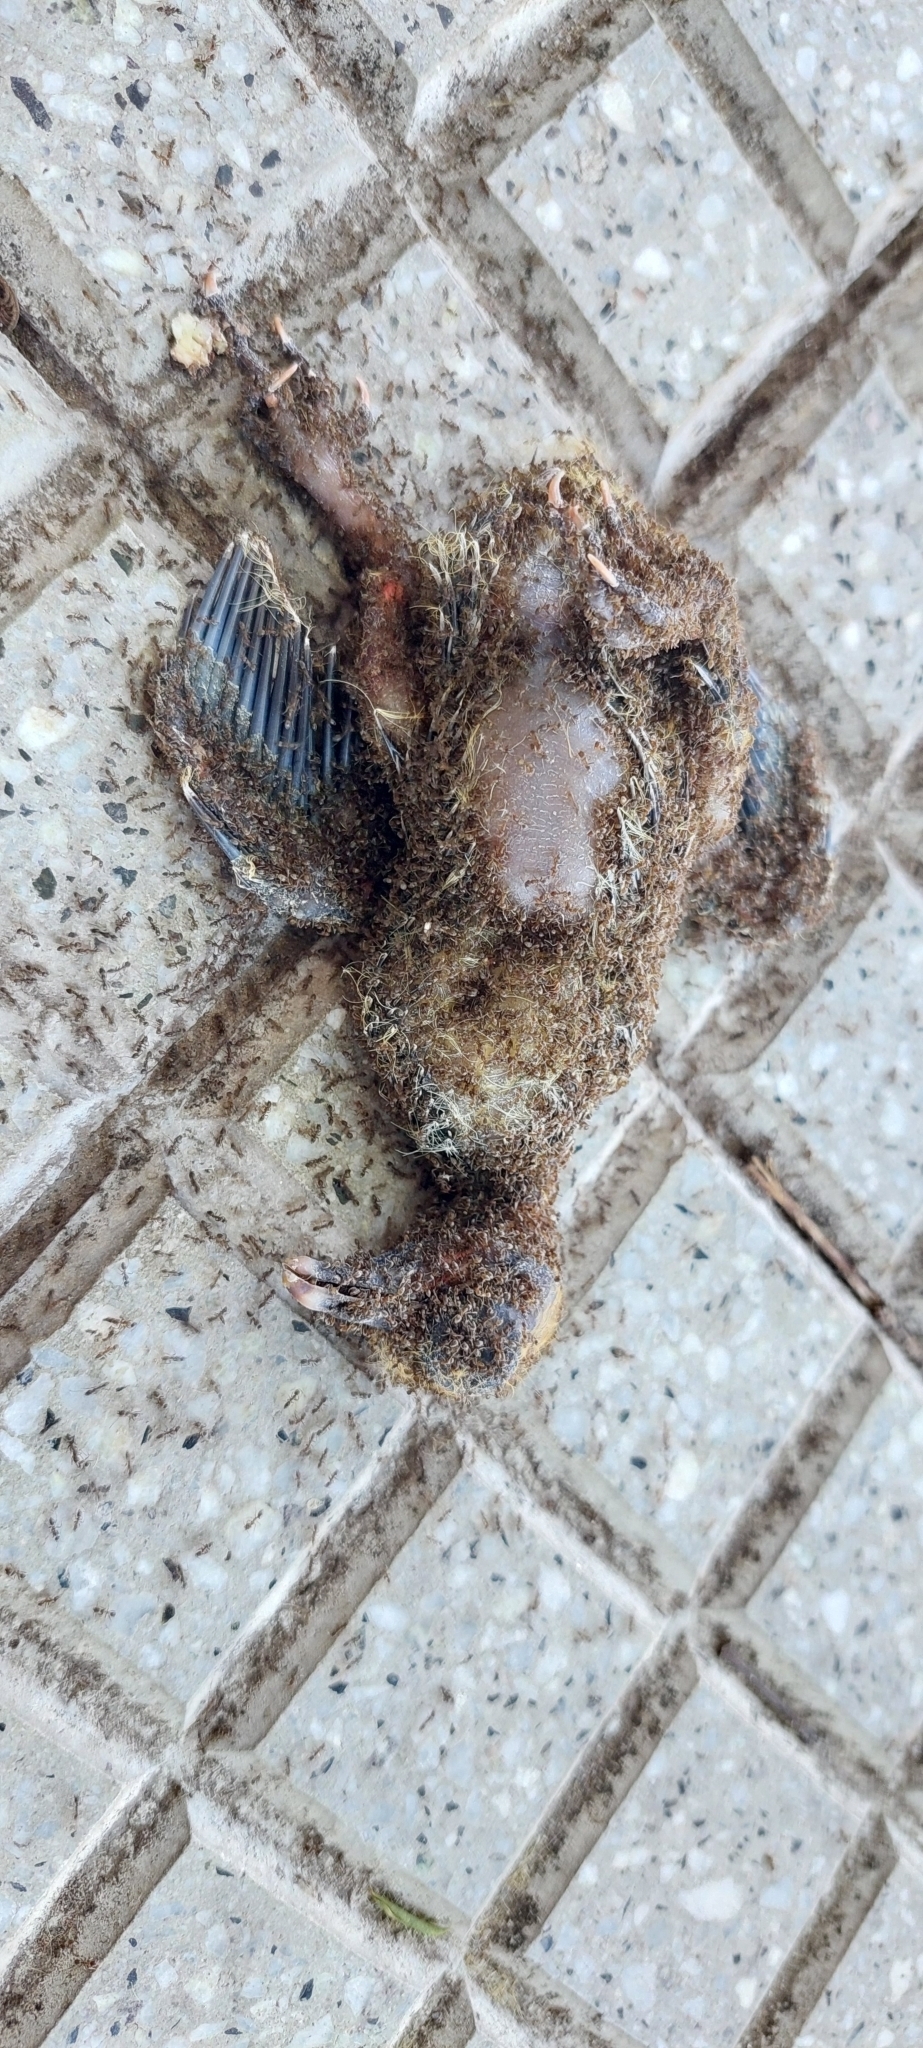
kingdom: Animalia
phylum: Arthropoda
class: Insecta
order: Hymenoptera
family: Formicidae
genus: Linepithema
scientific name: Linepithema humile
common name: Argentine ant
